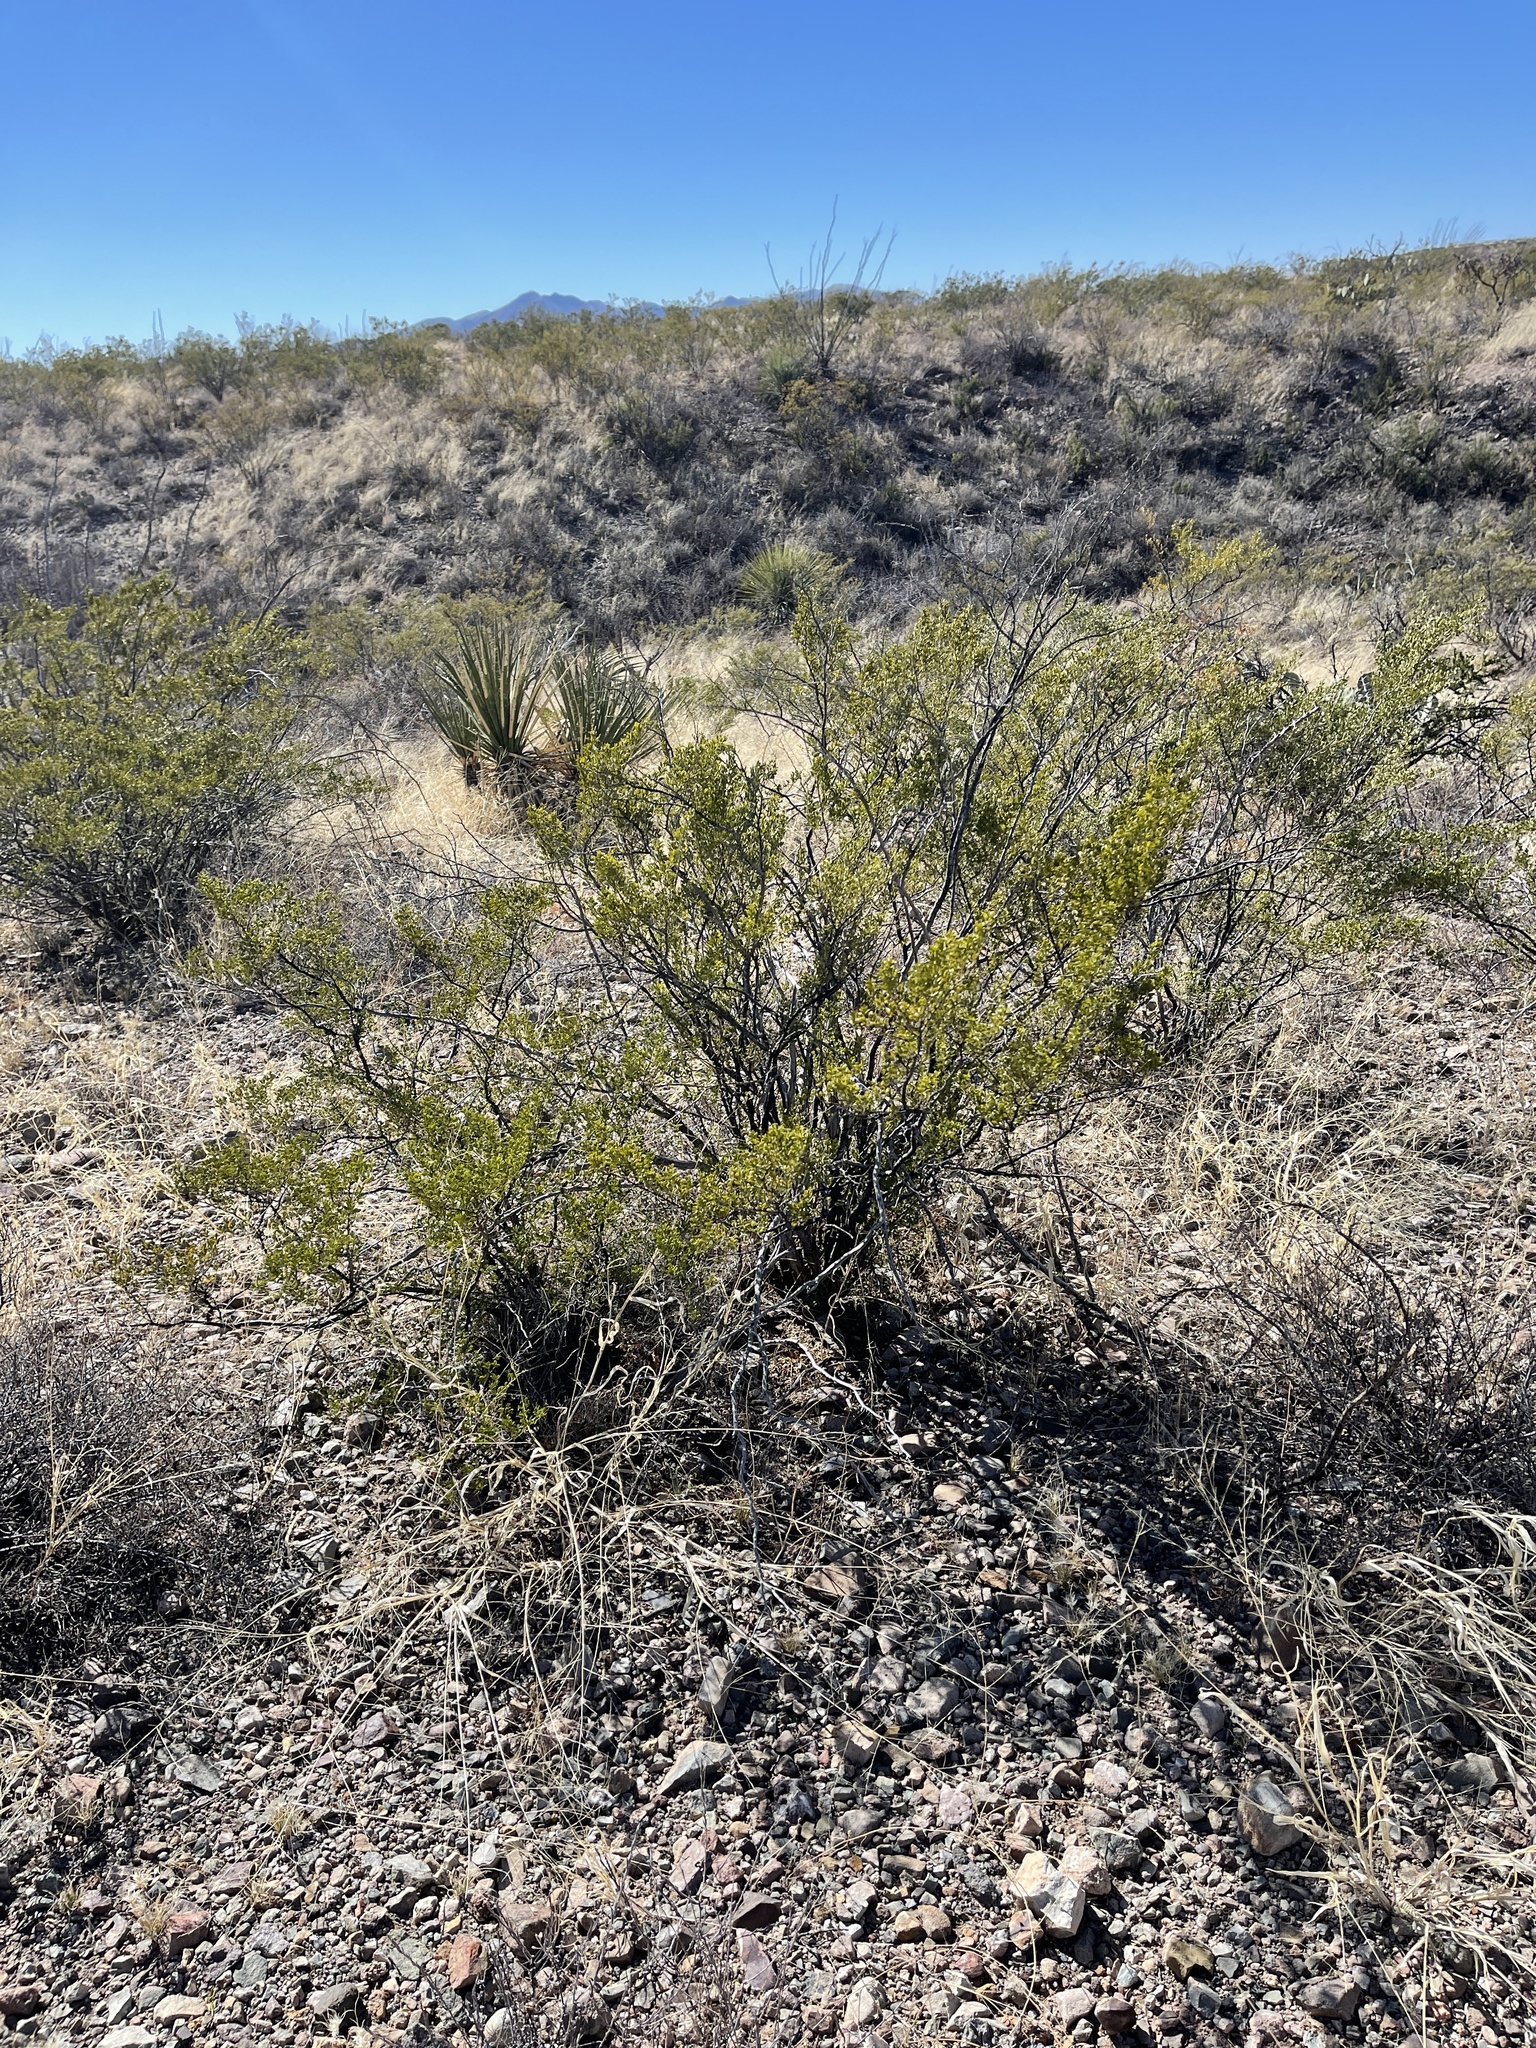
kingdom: Plantae
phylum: Tracheophyta
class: Magnoliopsida
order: Zygophyllales
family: Zygophyllaceae
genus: Larrea
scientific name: Larrea tridentata
